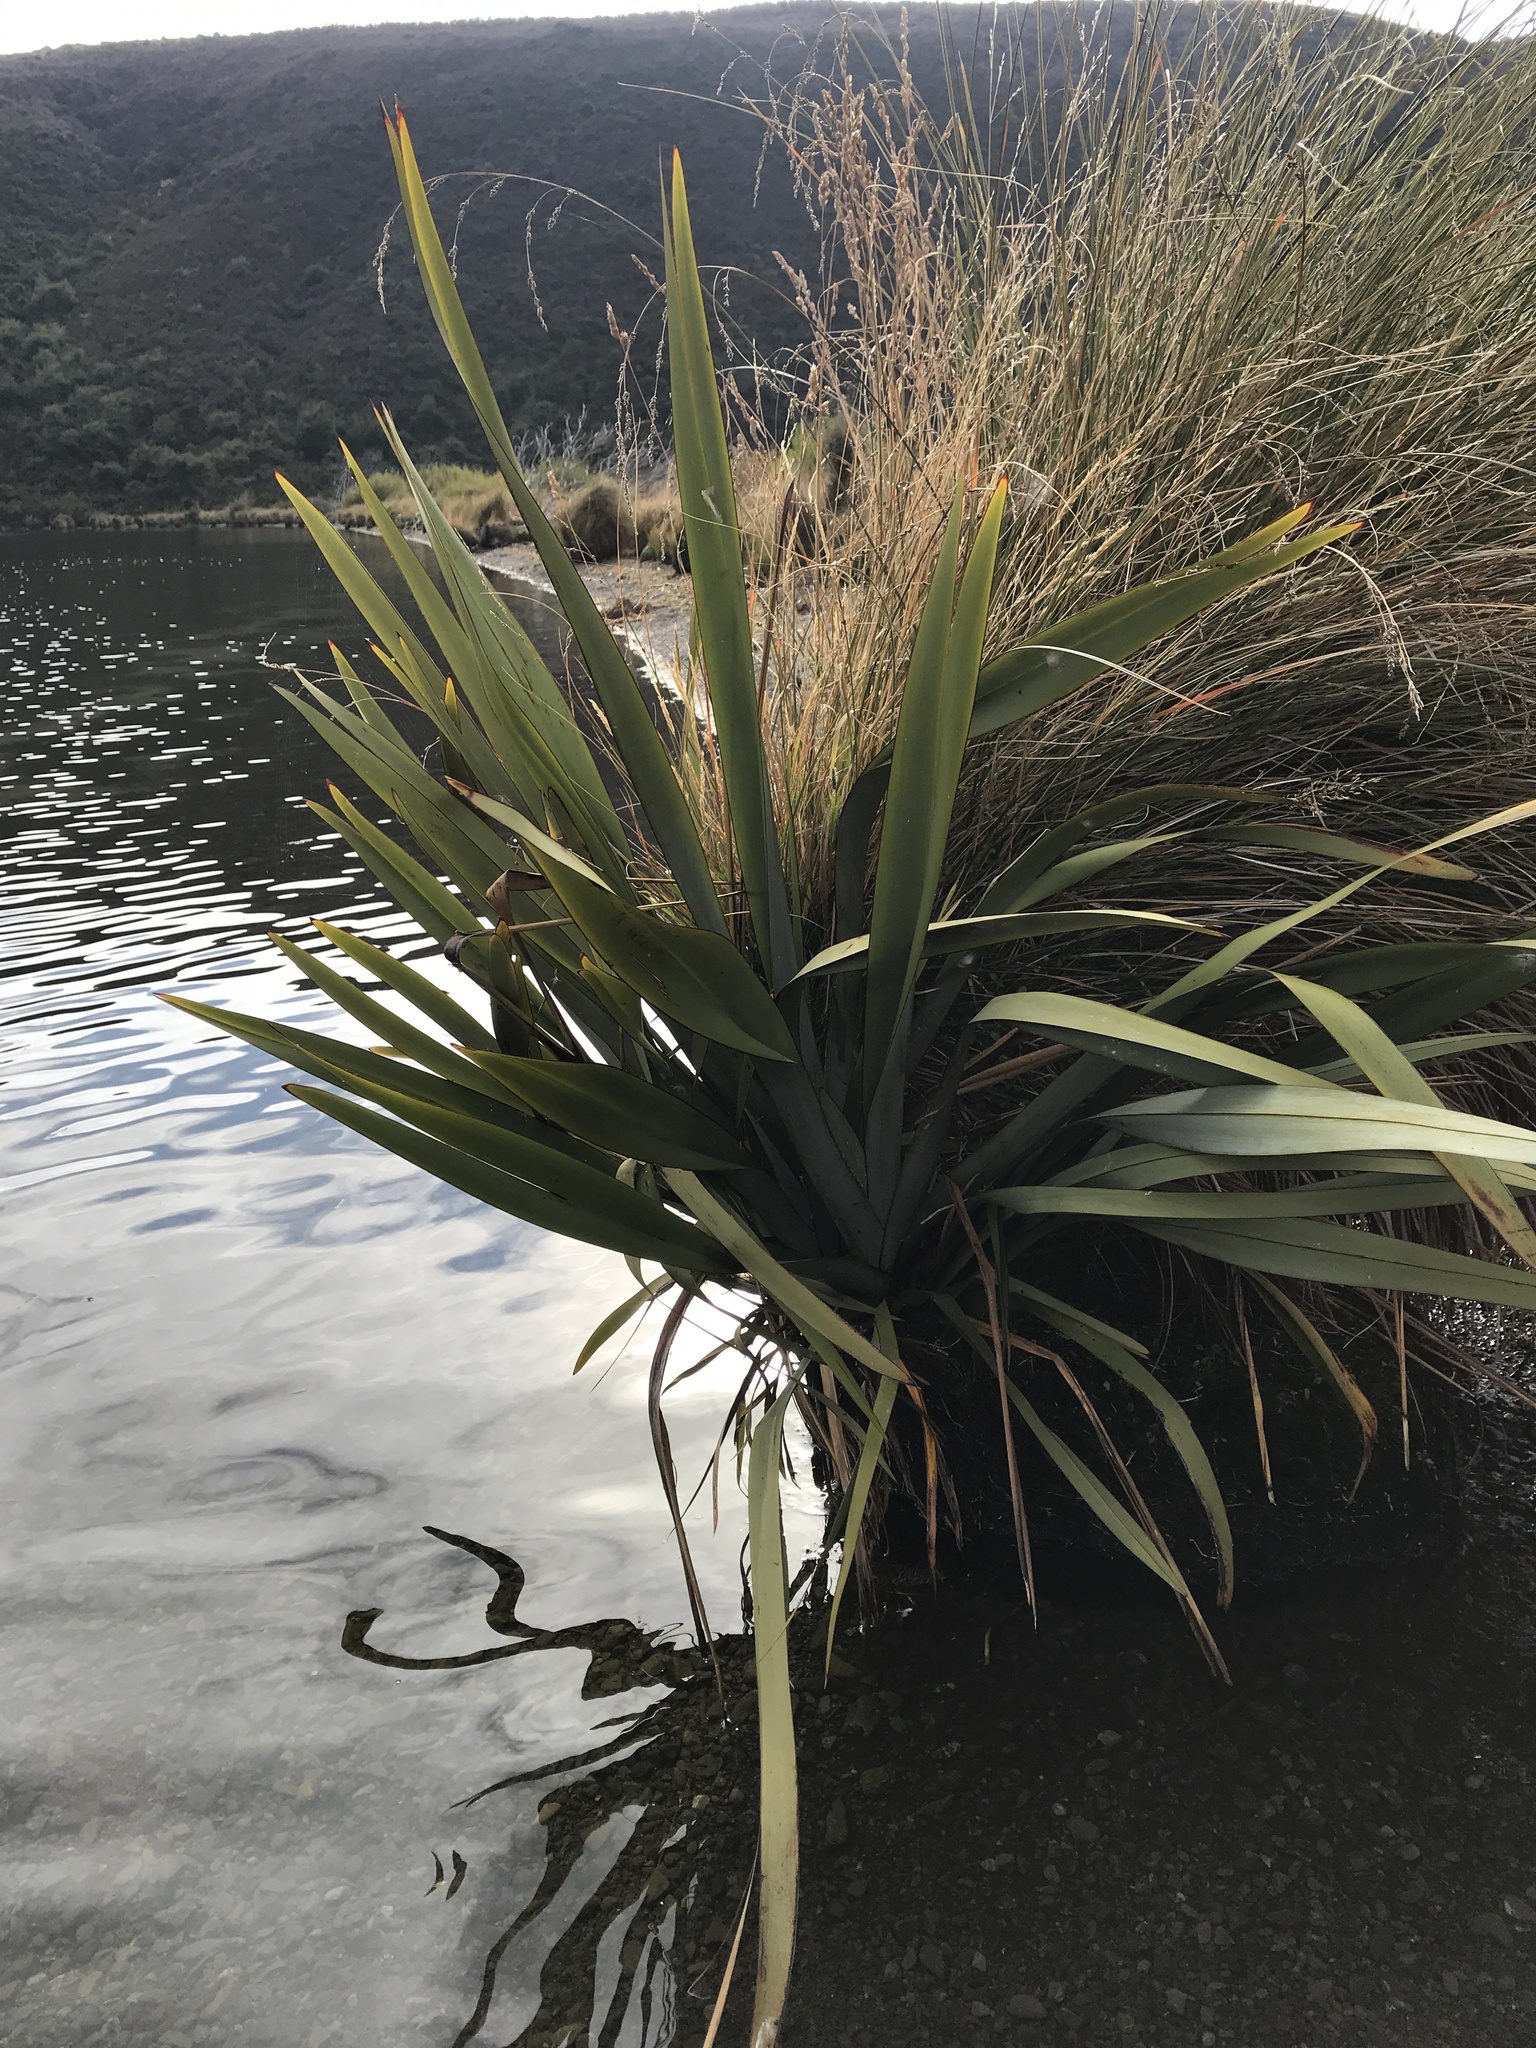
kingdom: Plantae
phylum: Tracheophyta
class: Liliopsida
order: Asparagales
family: Asphodelaceae
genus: Phormium
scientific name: Phormium tenax
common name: New zealand flax
